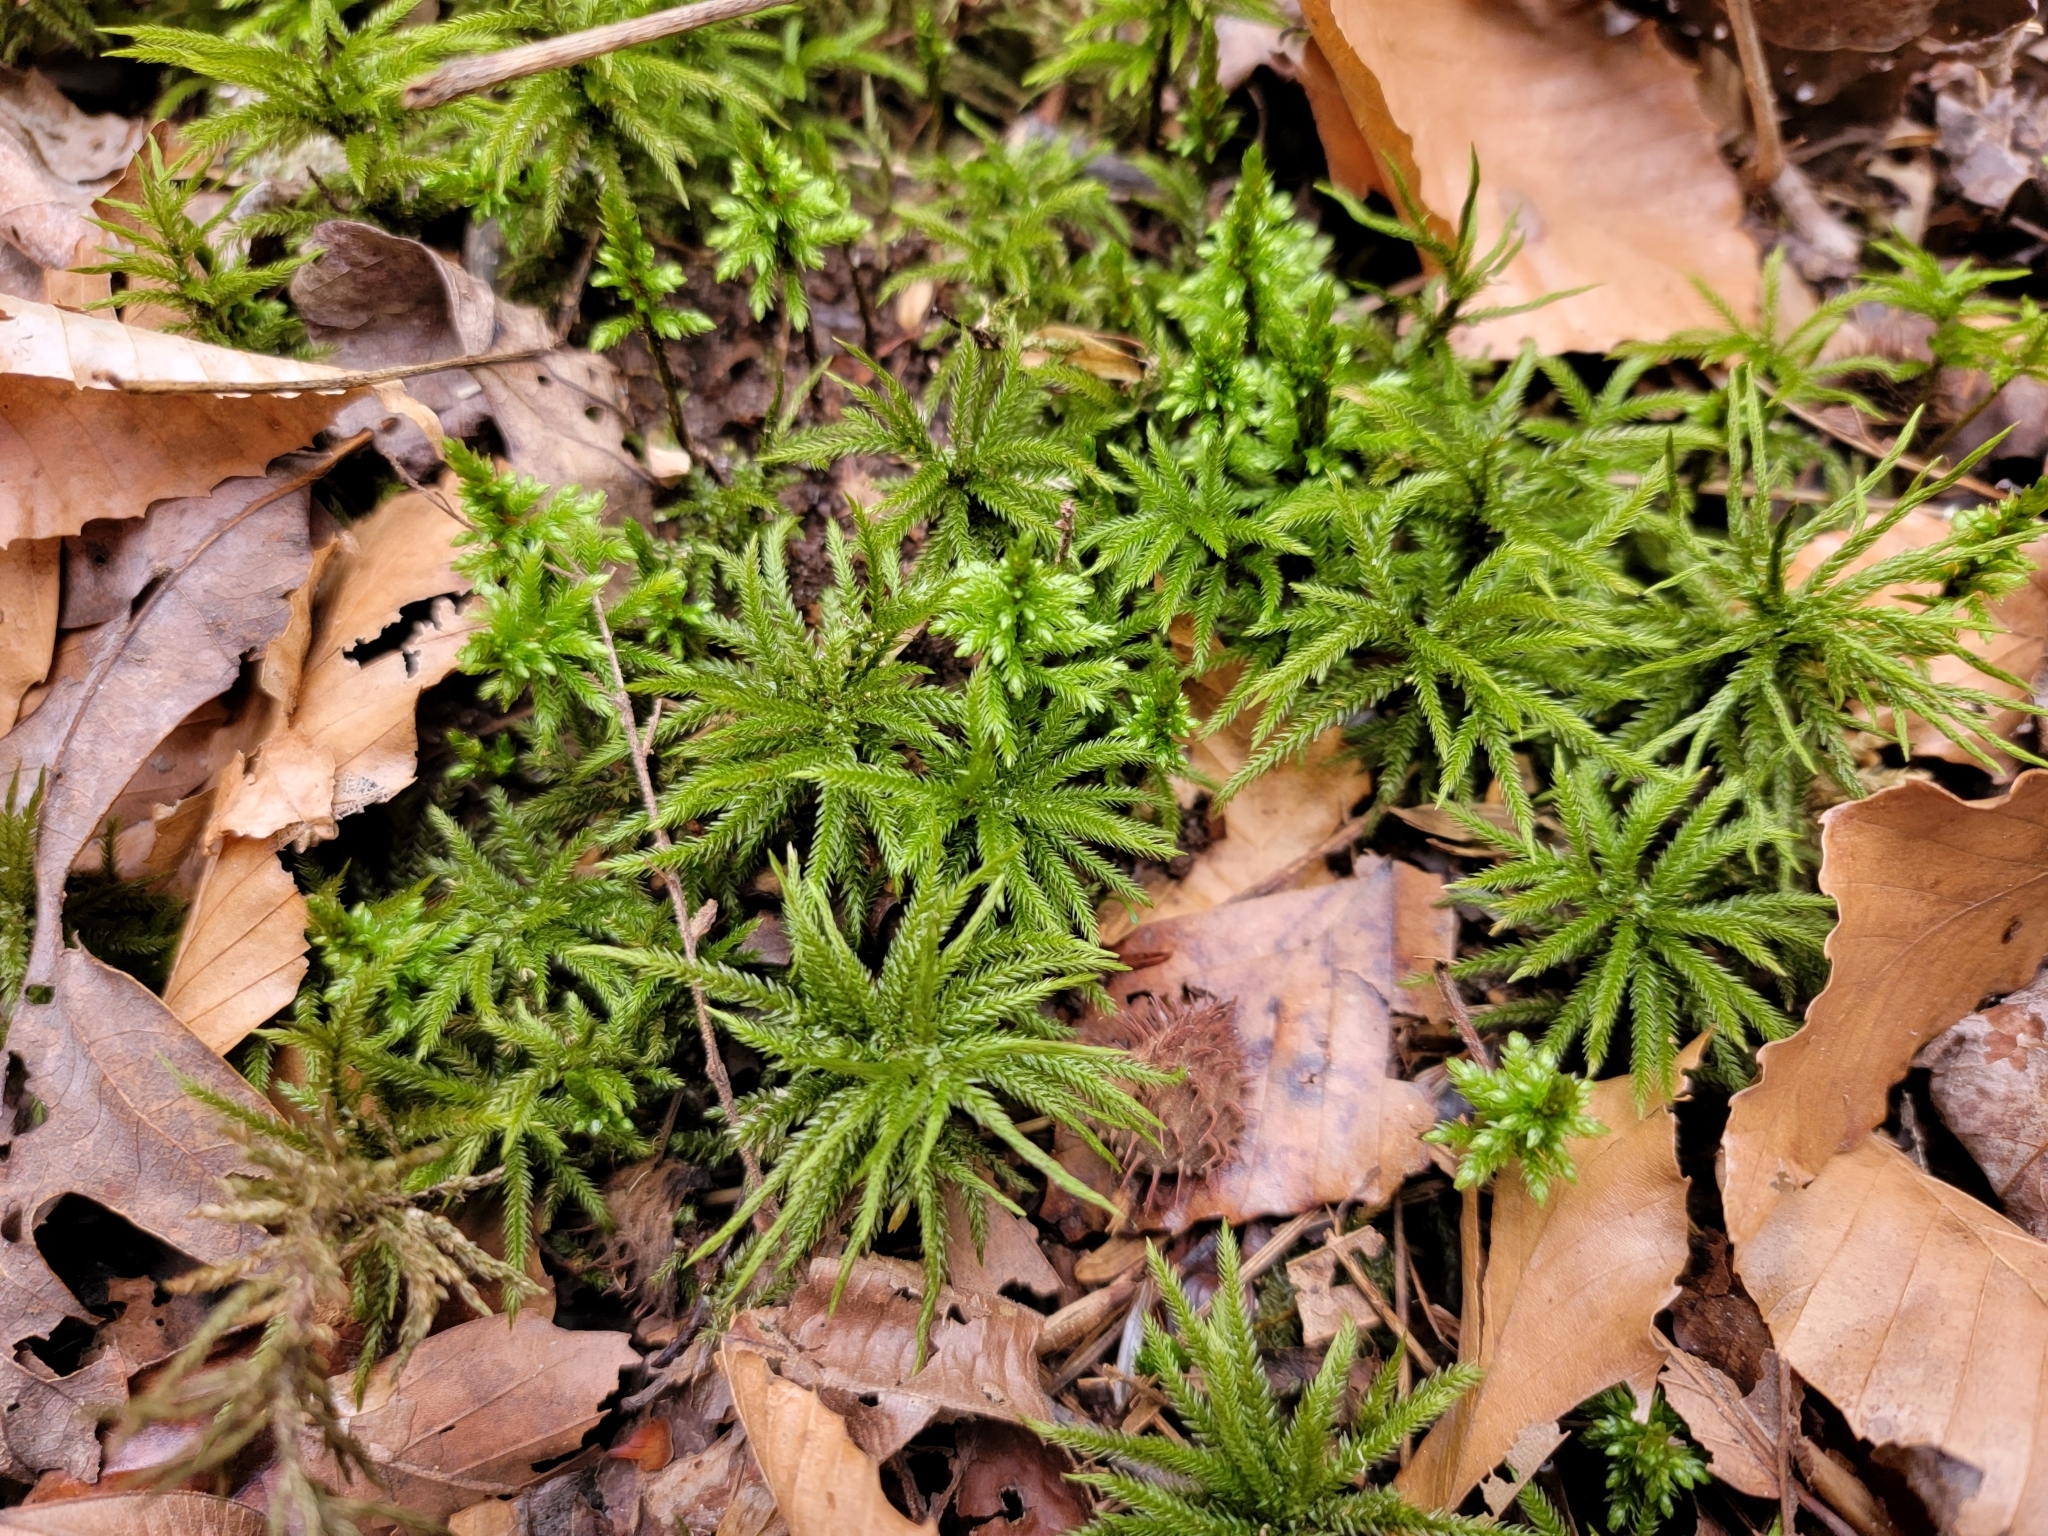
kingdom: Plantae
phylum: Bryophyta
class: Bryopsida
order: Hypnales
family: Climaciaceae
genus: Climacium
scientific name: Climacium americanum
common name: American tree moss
